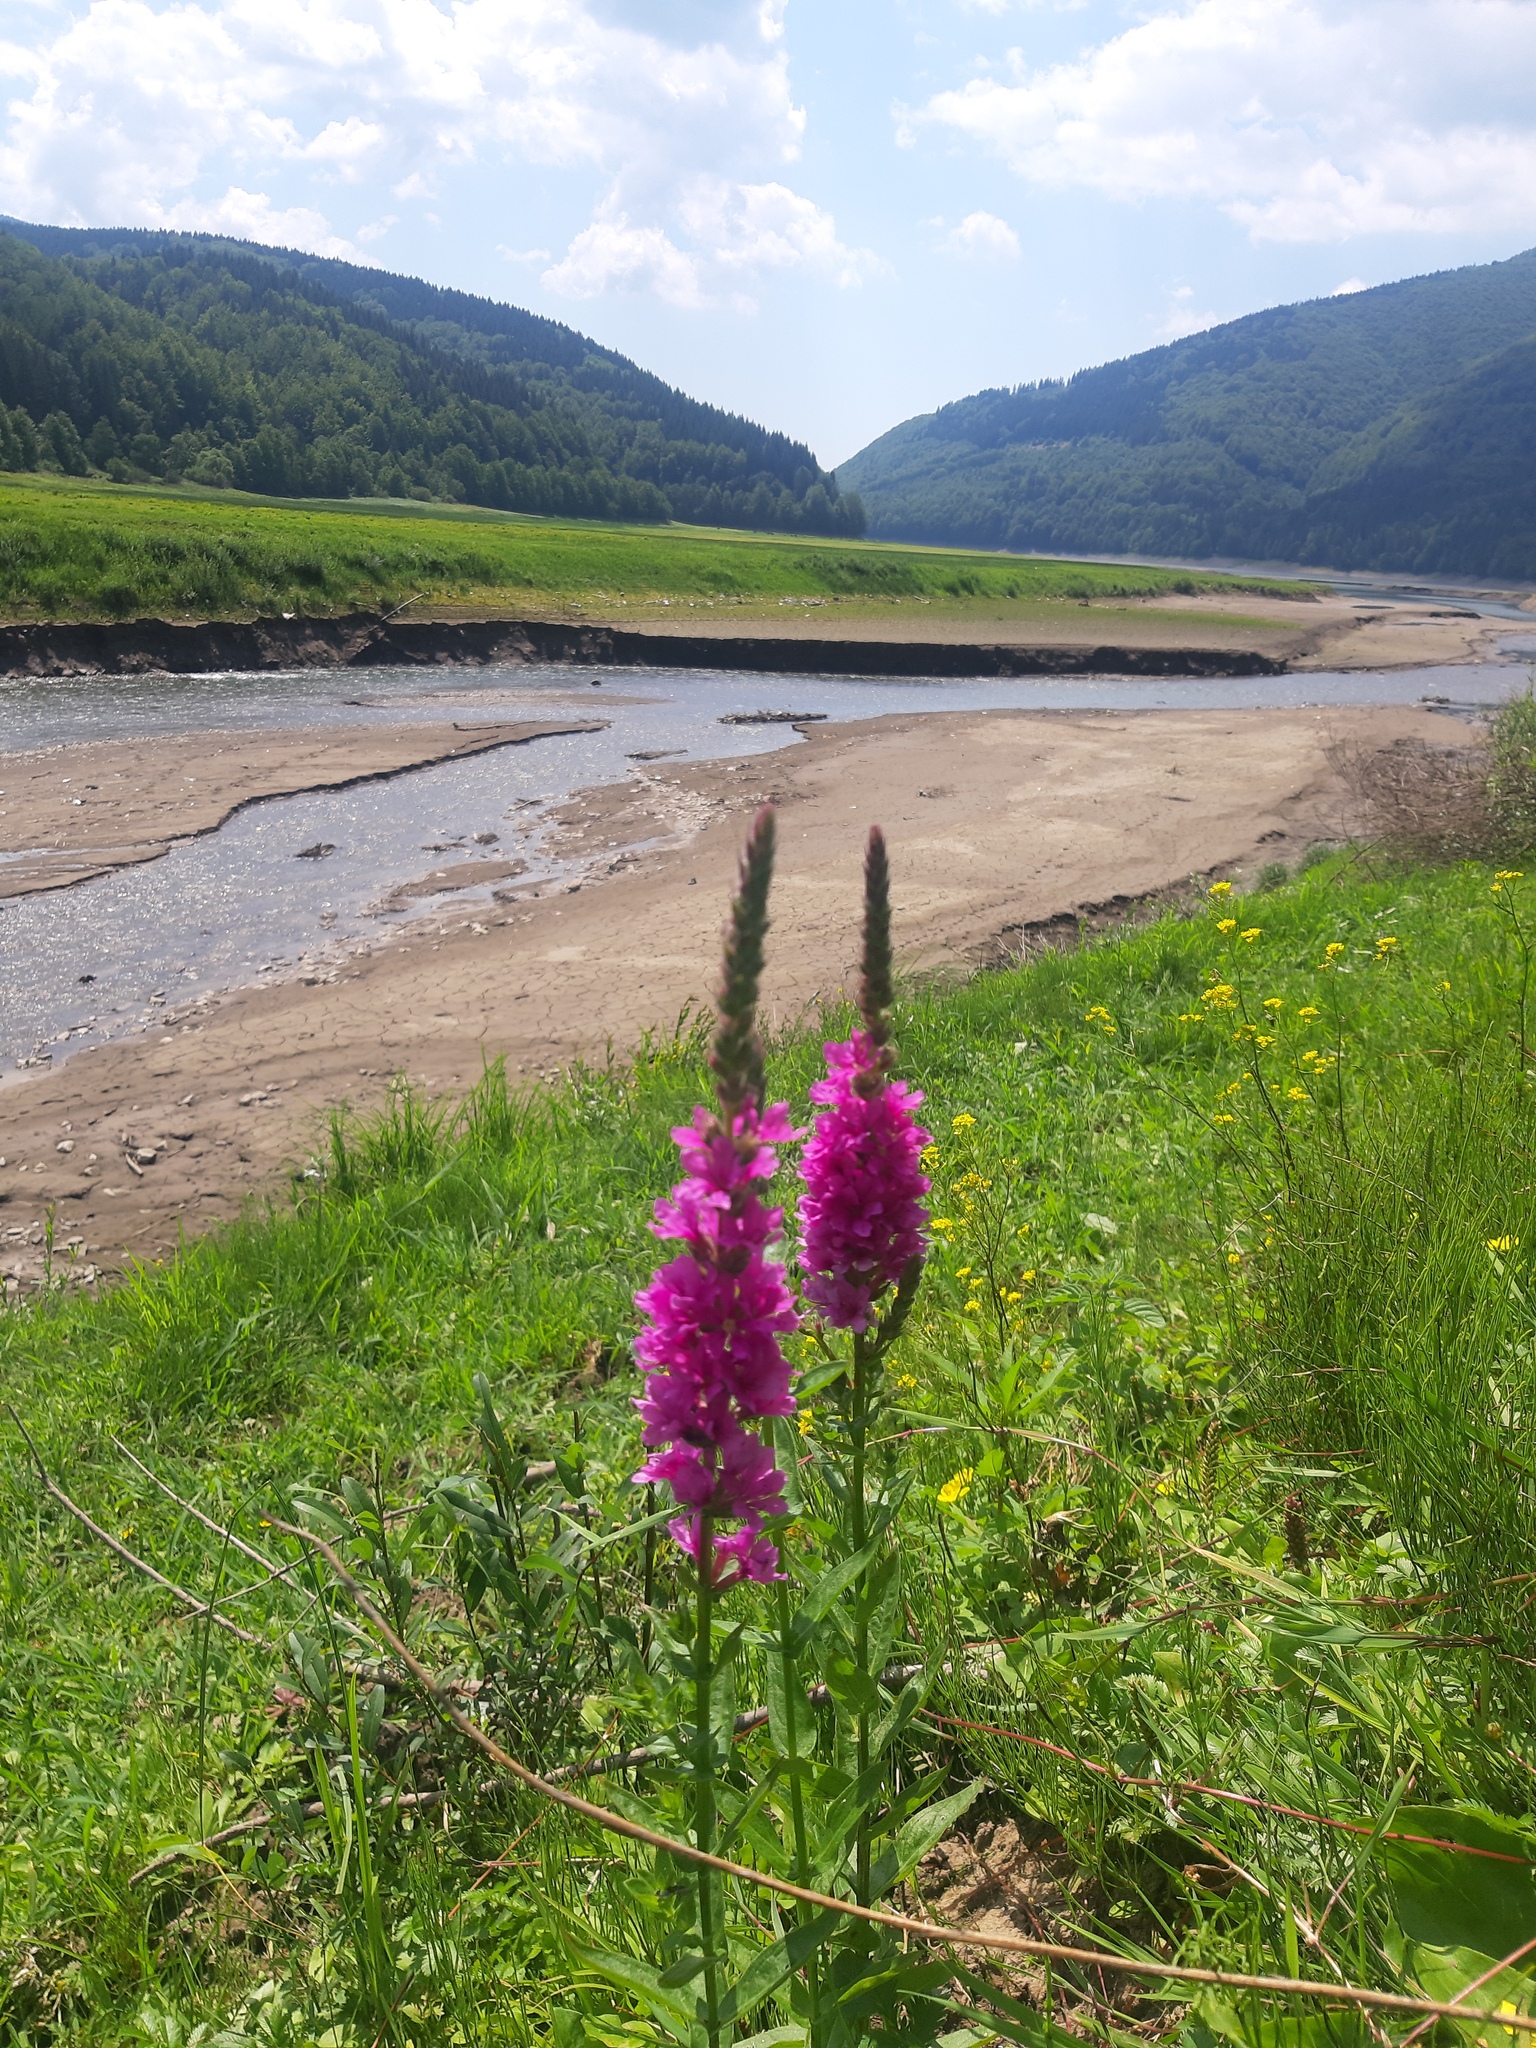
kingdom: Plantae
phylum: Tracheophyta
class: Magnoliopsida
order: Myrtales
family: Lythraceae
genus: Lythrum
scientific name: Lythrum salicaria
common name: Purple loosestrife
